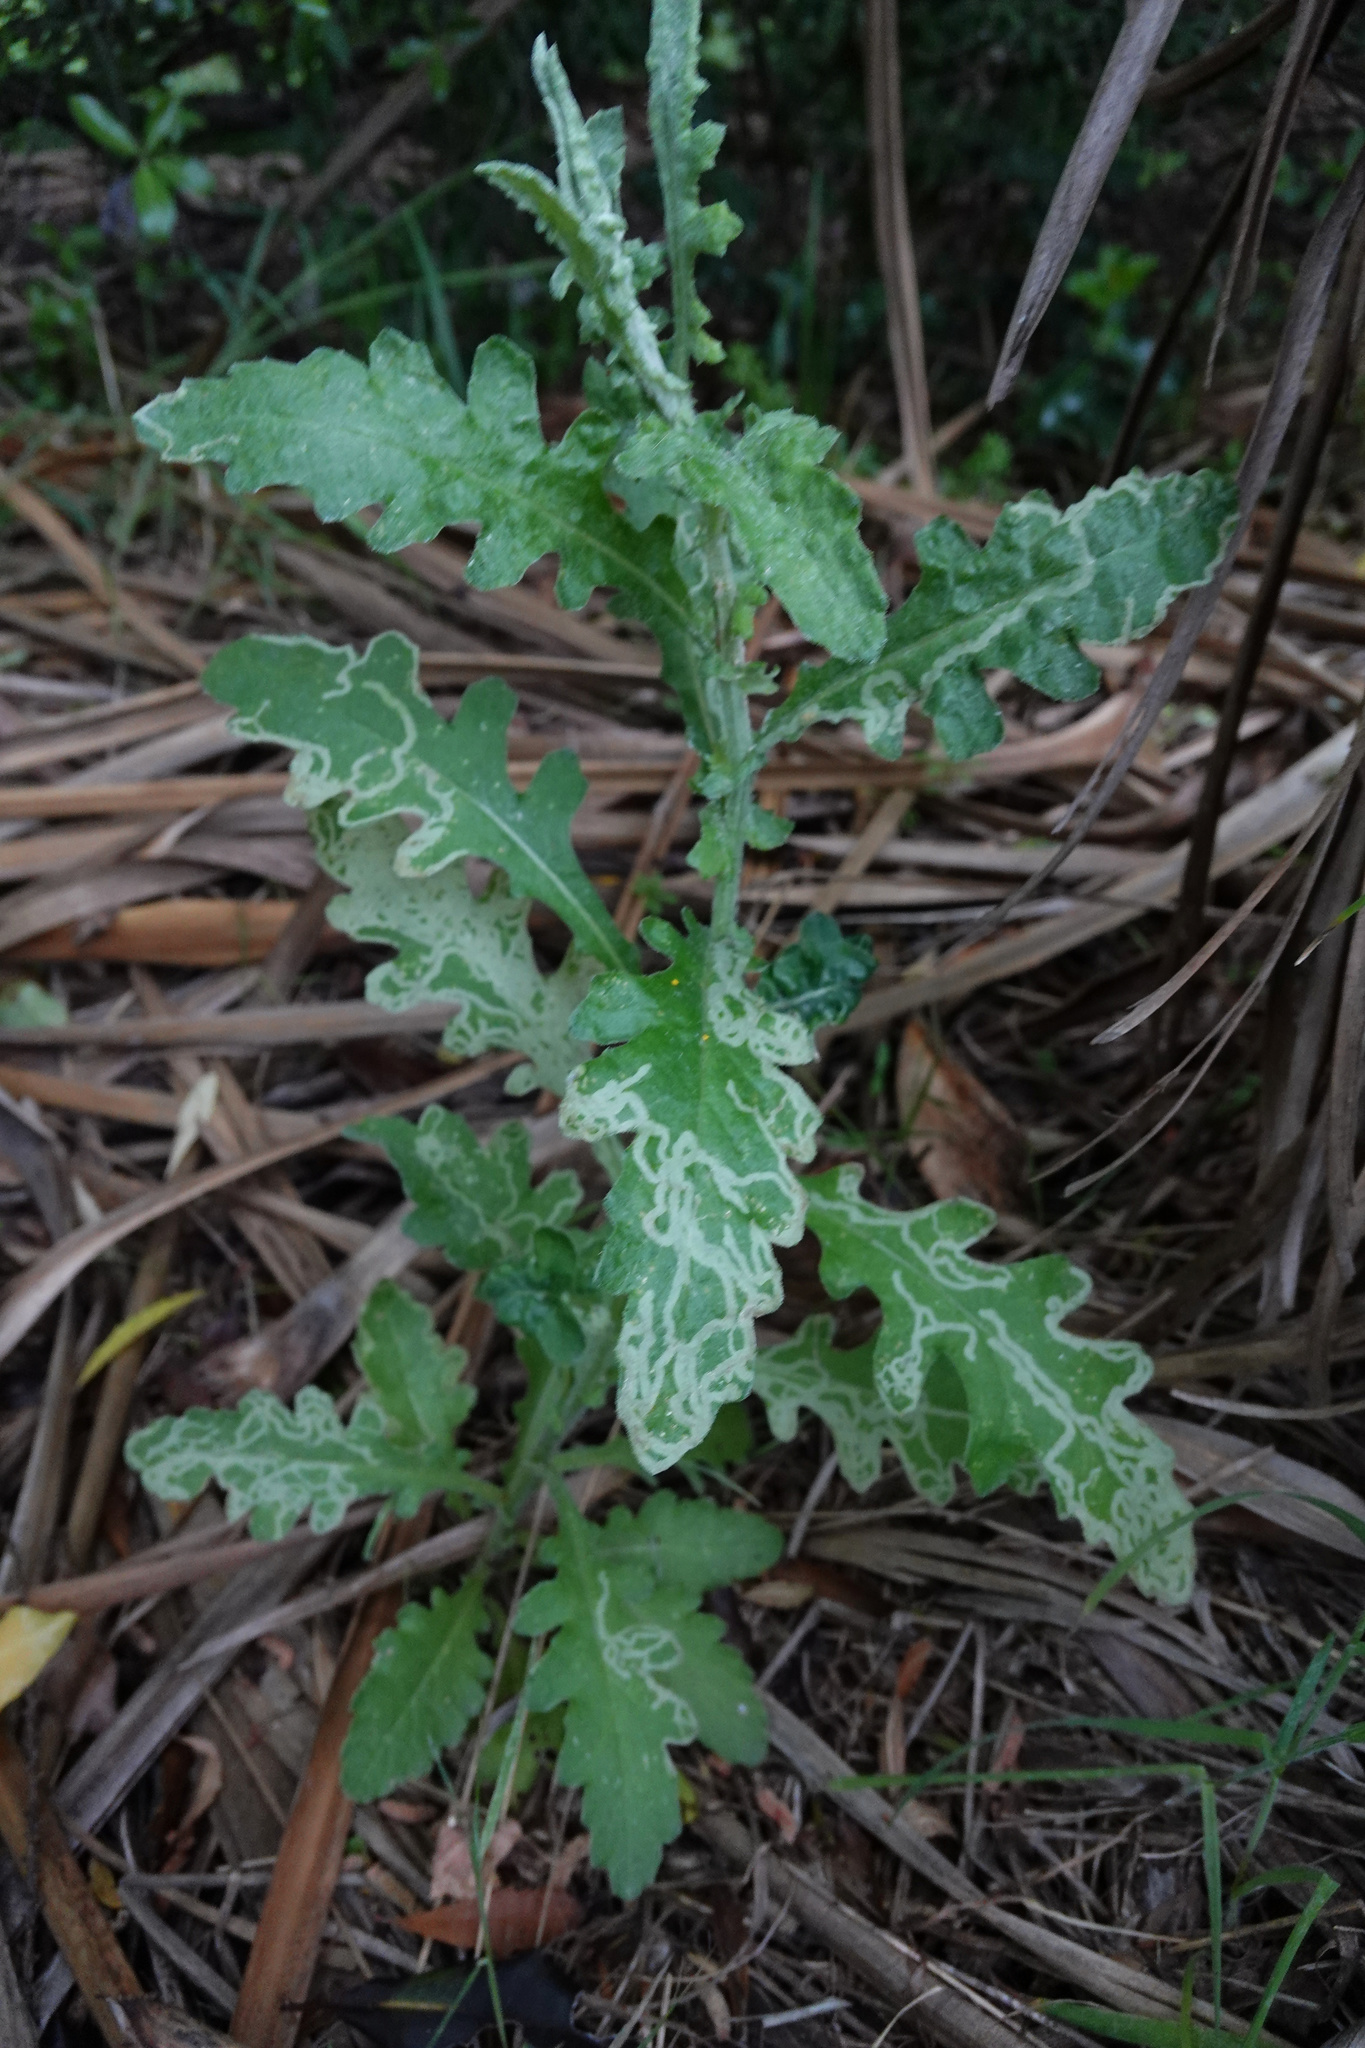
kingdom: Plantae
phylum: Tracheophyta
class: Magnoliopsida
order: Asterales
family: Asteraceae
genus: Senecio
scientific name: Senecio glomeratus
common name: Cutleaf burnweed
